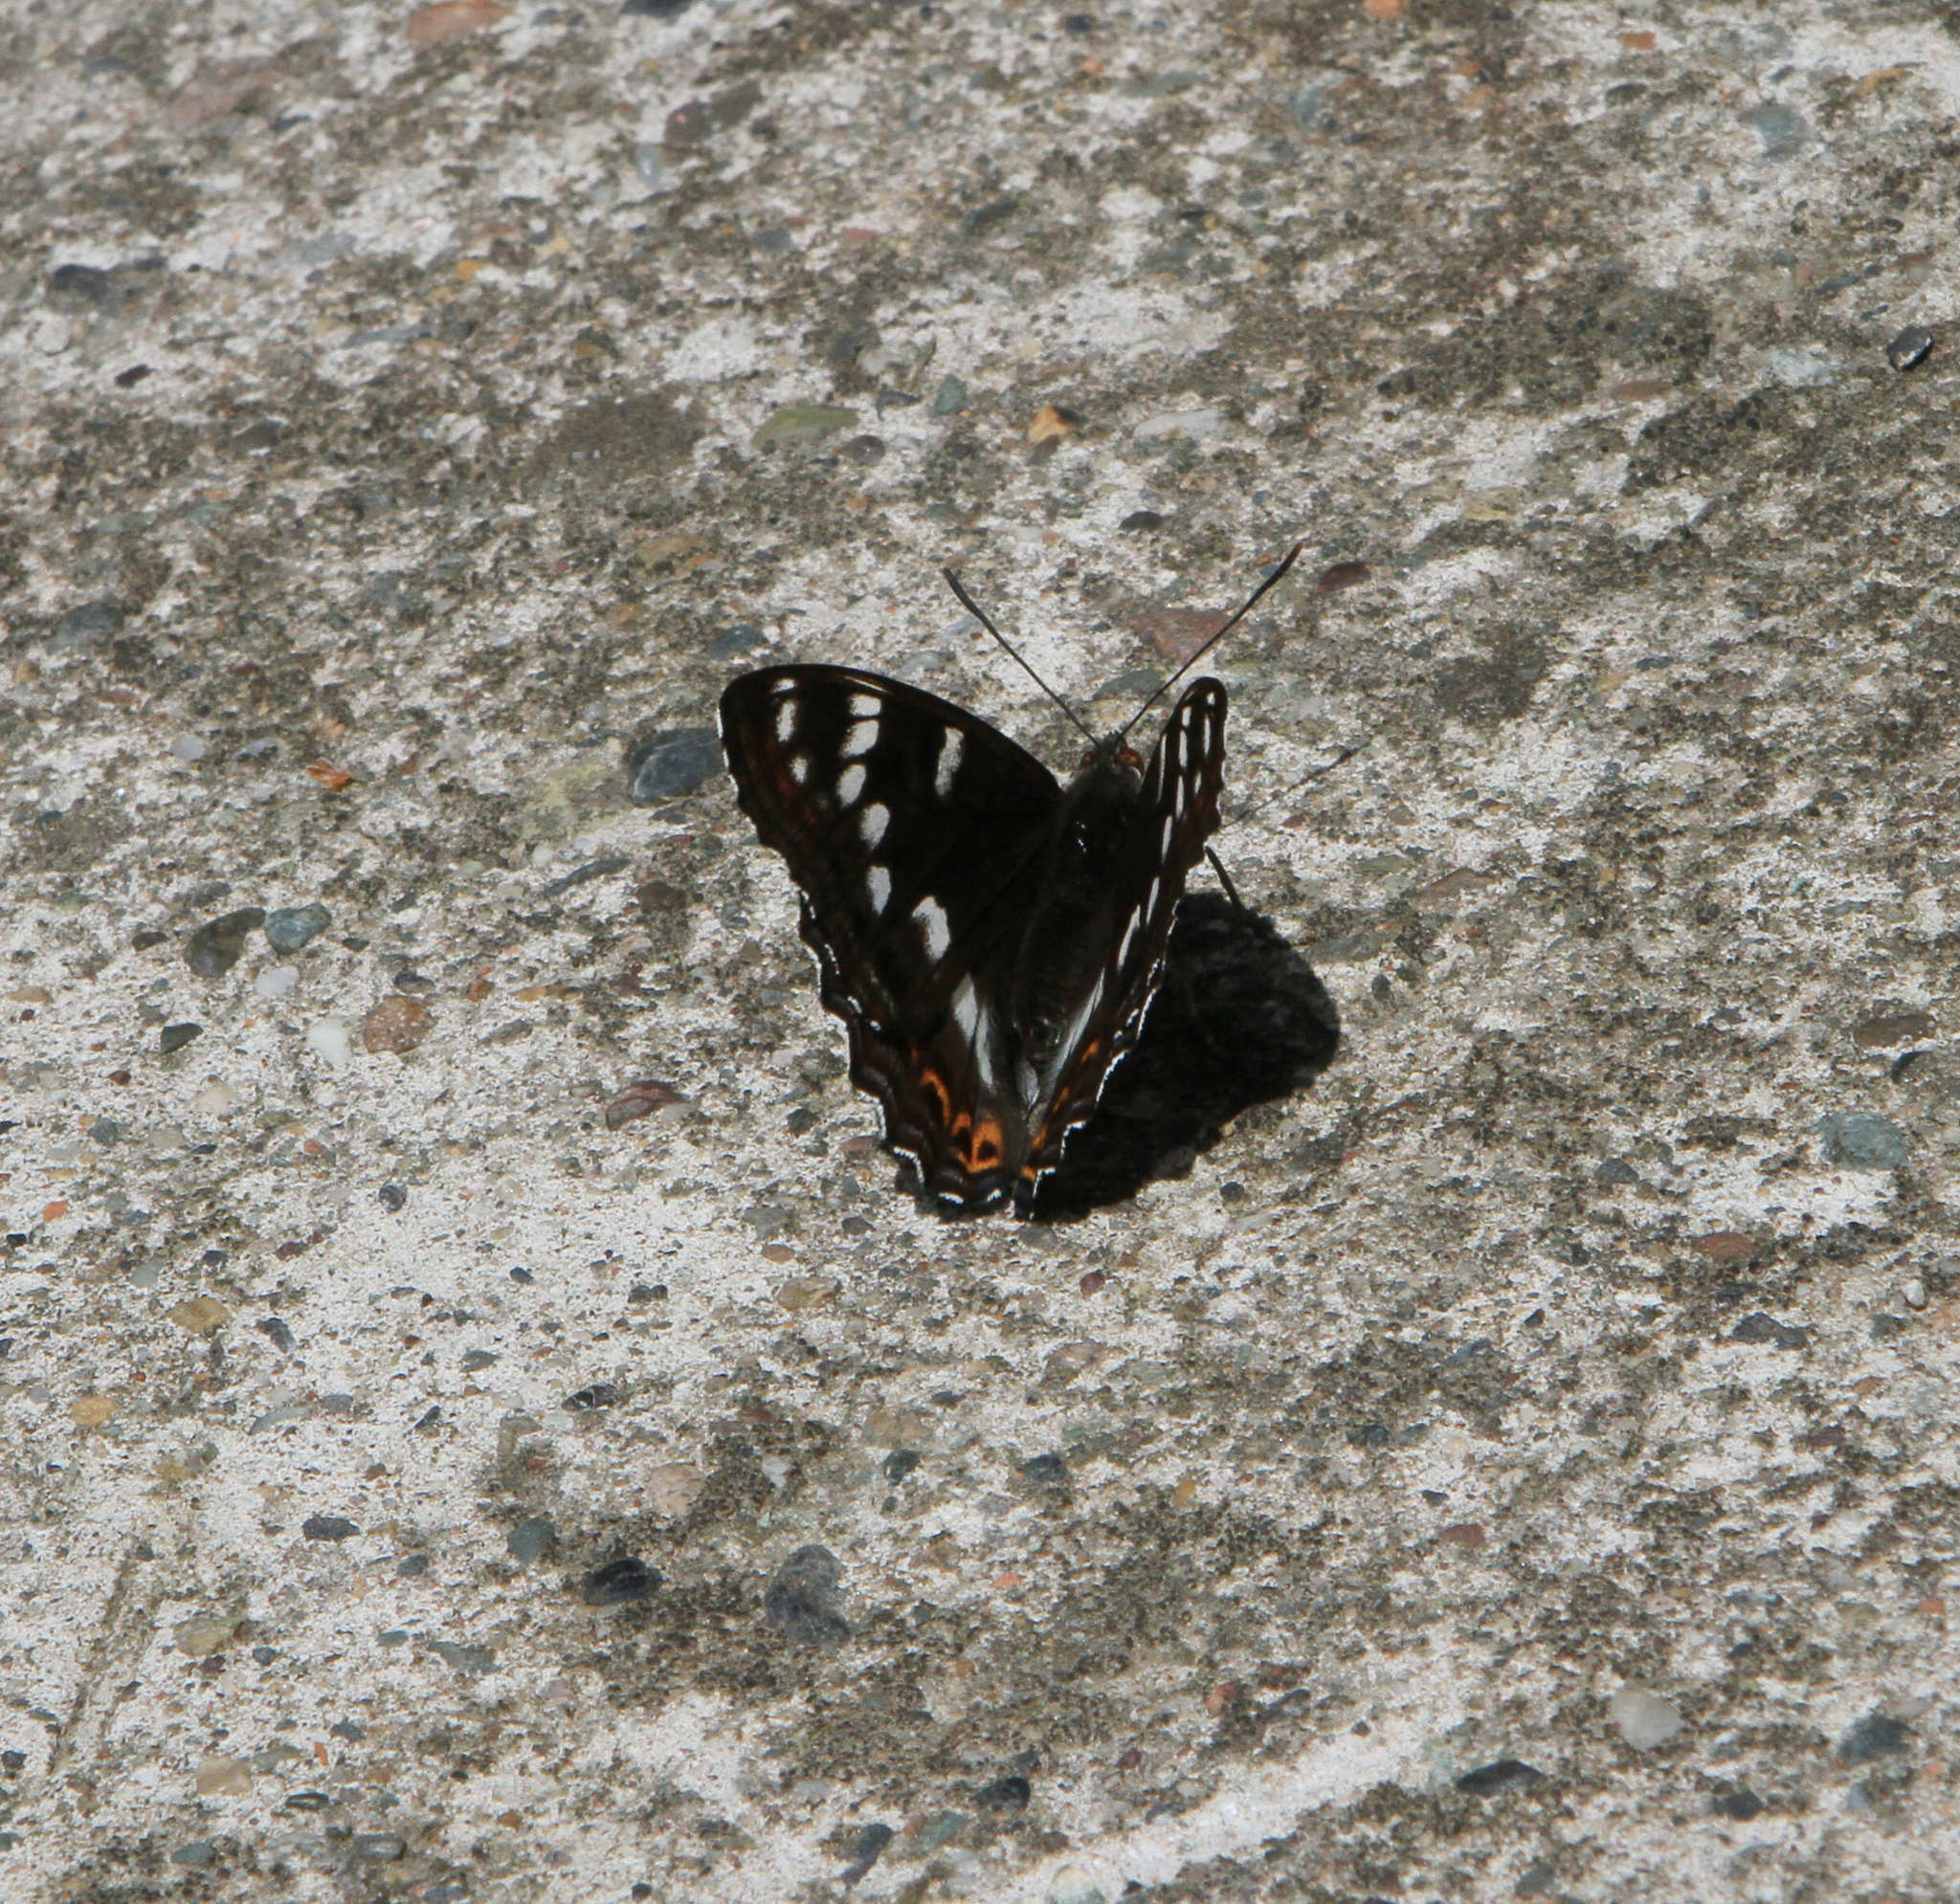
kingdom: Animalia
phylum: Arthropoda
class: Insecta
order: Lepidoptera
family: Nymphalidae
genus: Limenitis
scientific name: Limenitis populi
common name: Poplar admiral
